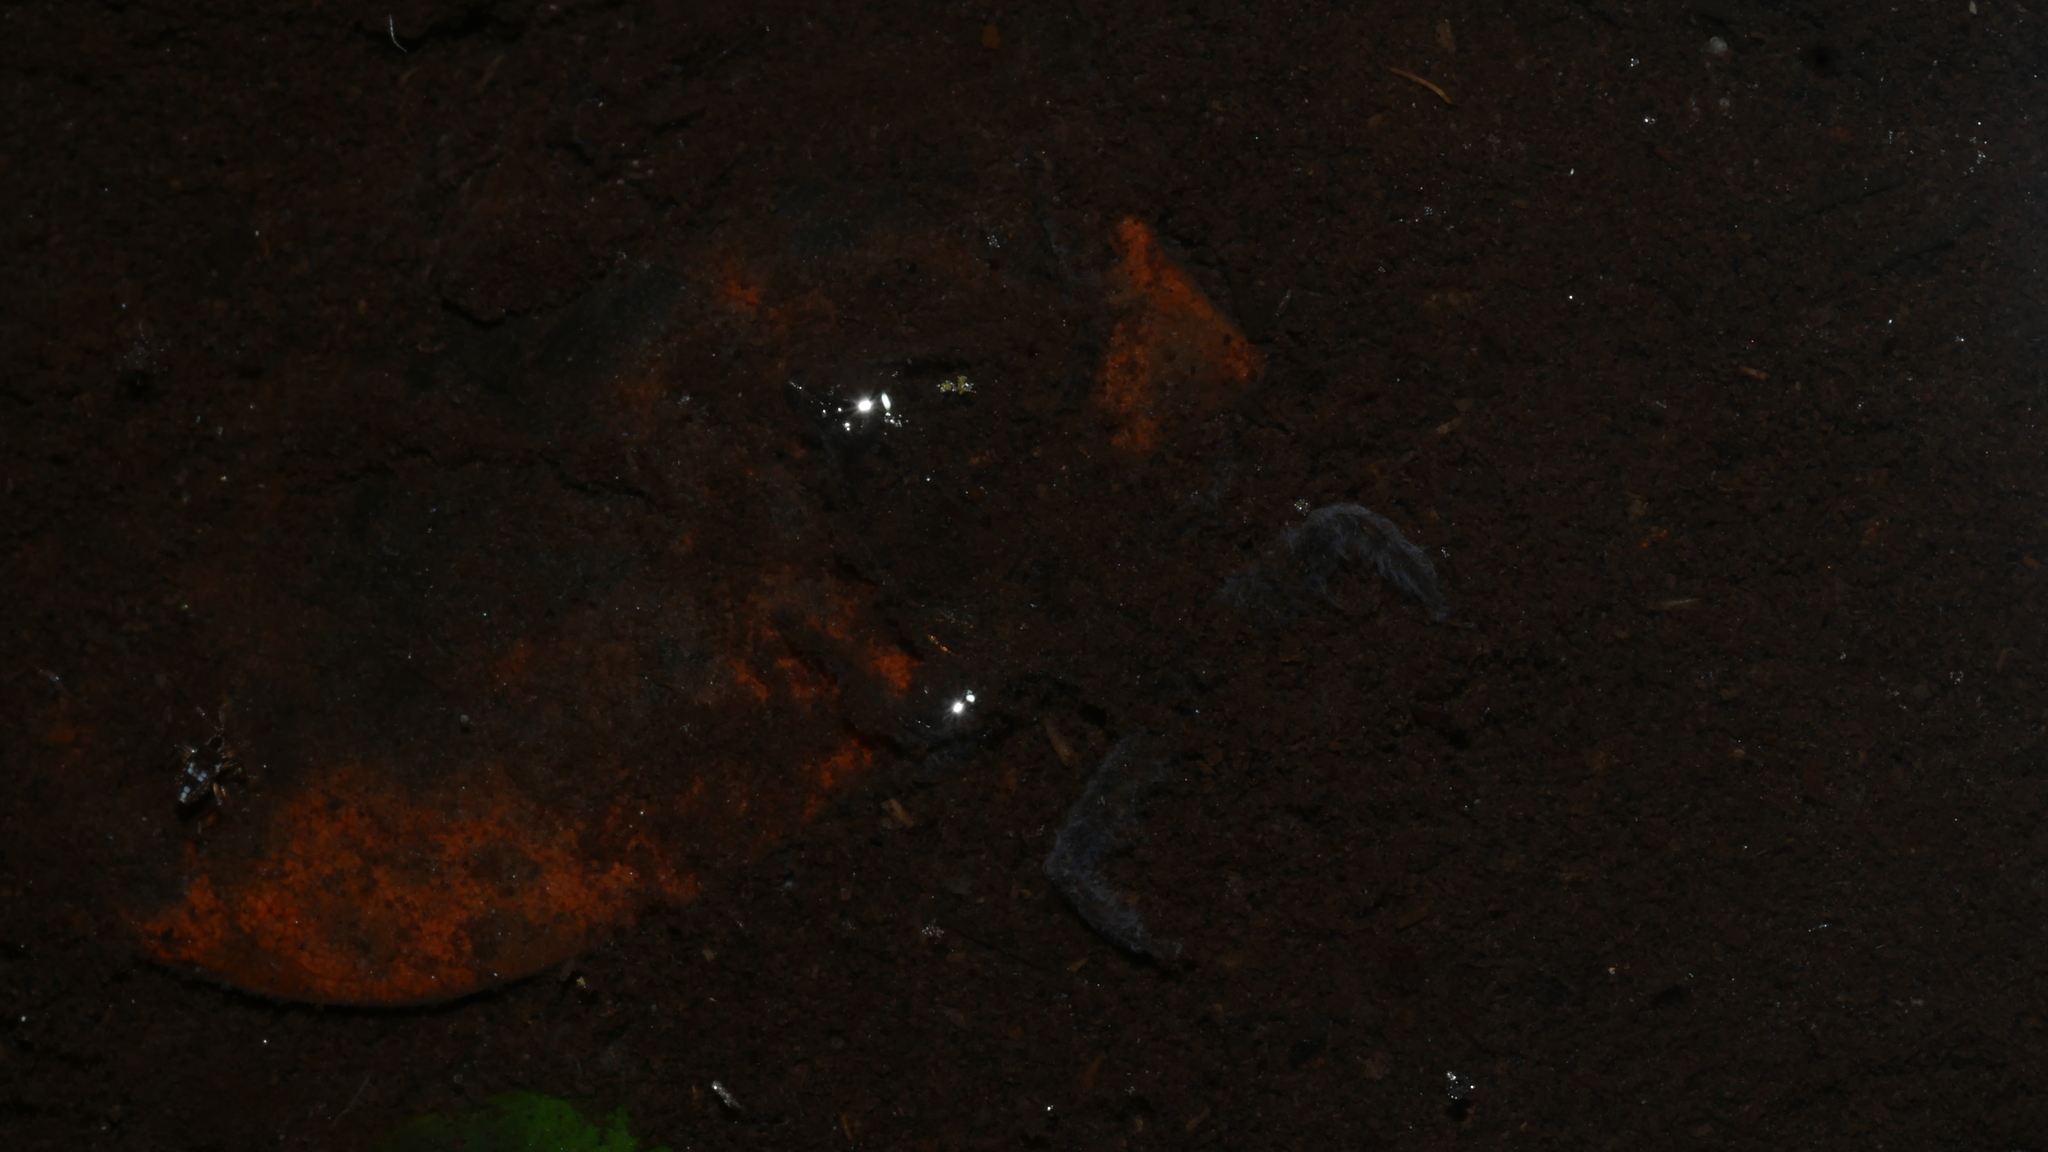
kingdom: Animalia
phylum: Arthropoda
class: Insecta
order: Hemiptera
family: Nepidae
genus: Nepa
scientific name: Nepa apiculata
